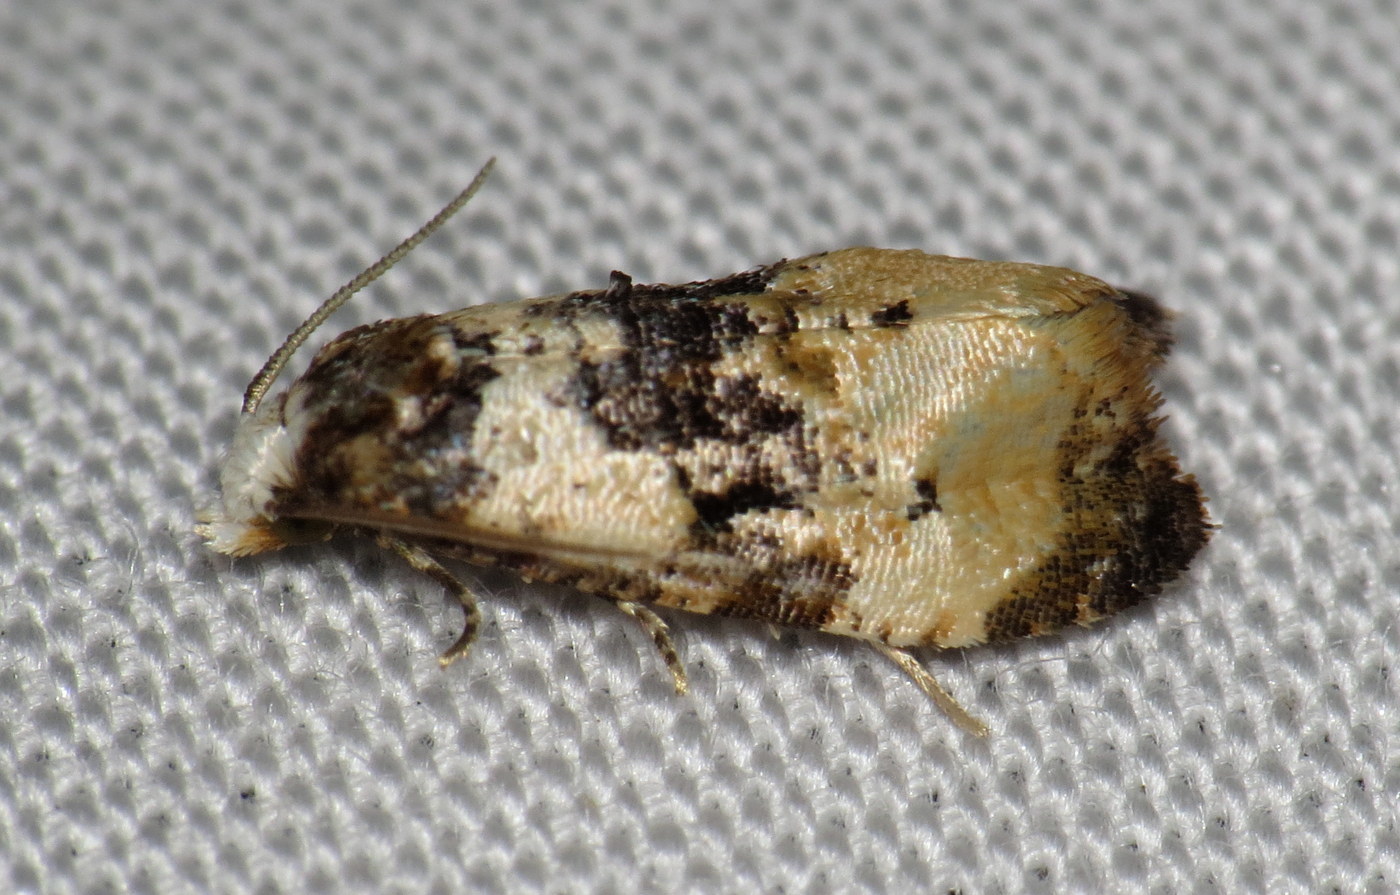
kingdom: Animalia
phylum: Arthropoda
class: Insecta
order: Lepidoptera
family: Tortricidae
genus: Phalonidia
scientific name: Phalonidia memoranda
